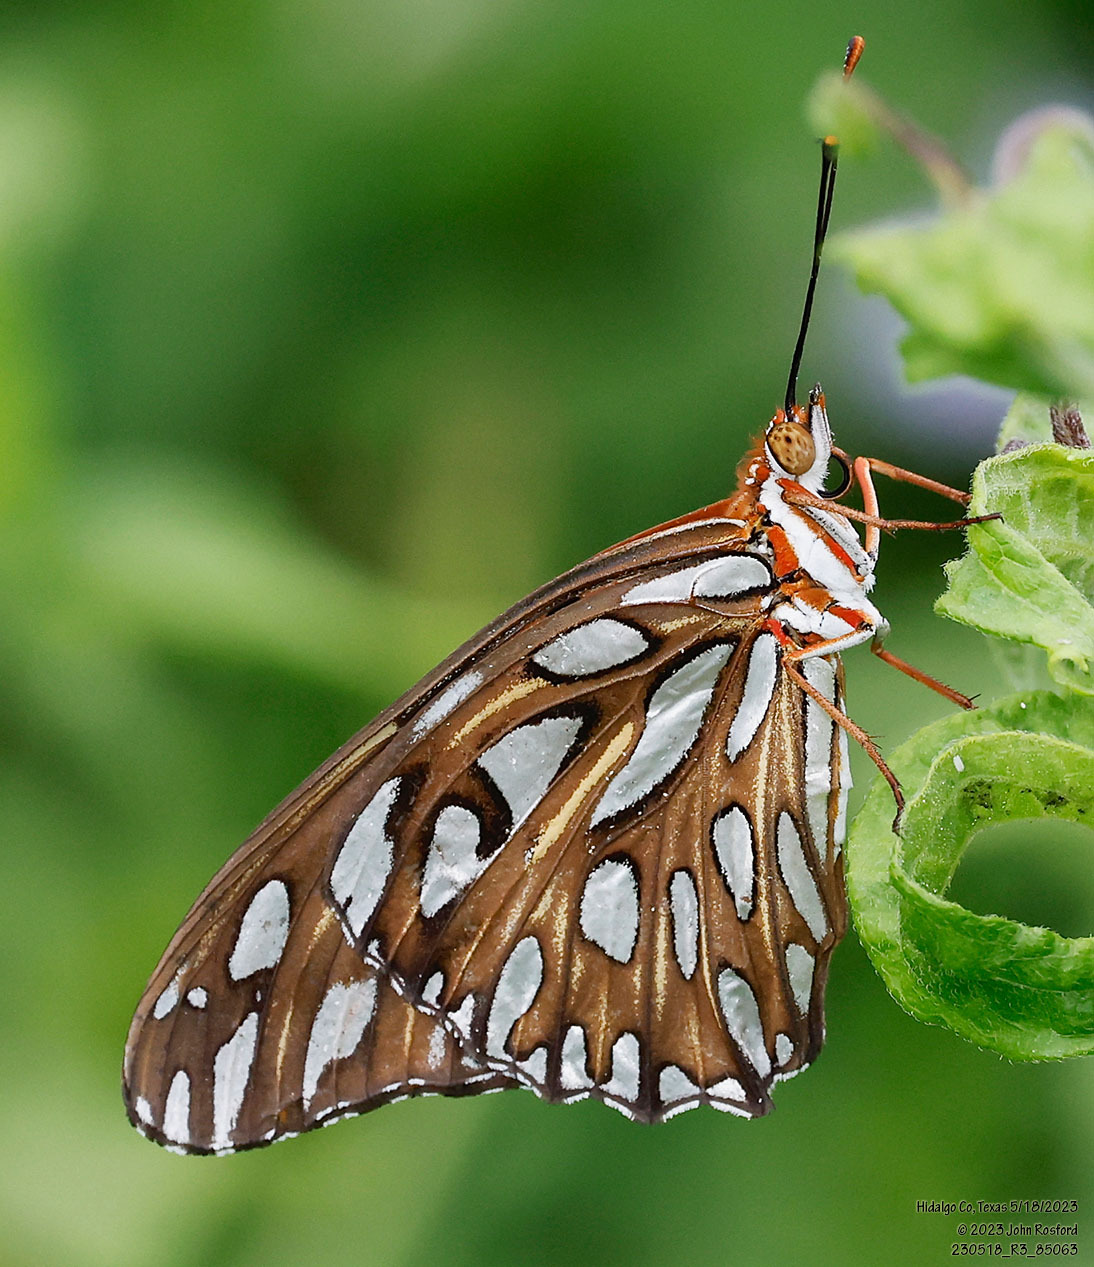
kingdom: Animalia
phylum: Arthropoda
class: Insecta
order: Lepidoptera
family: Nymphalidae
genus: Dione
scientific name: Dione vanillae
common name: Gulf fritillary
